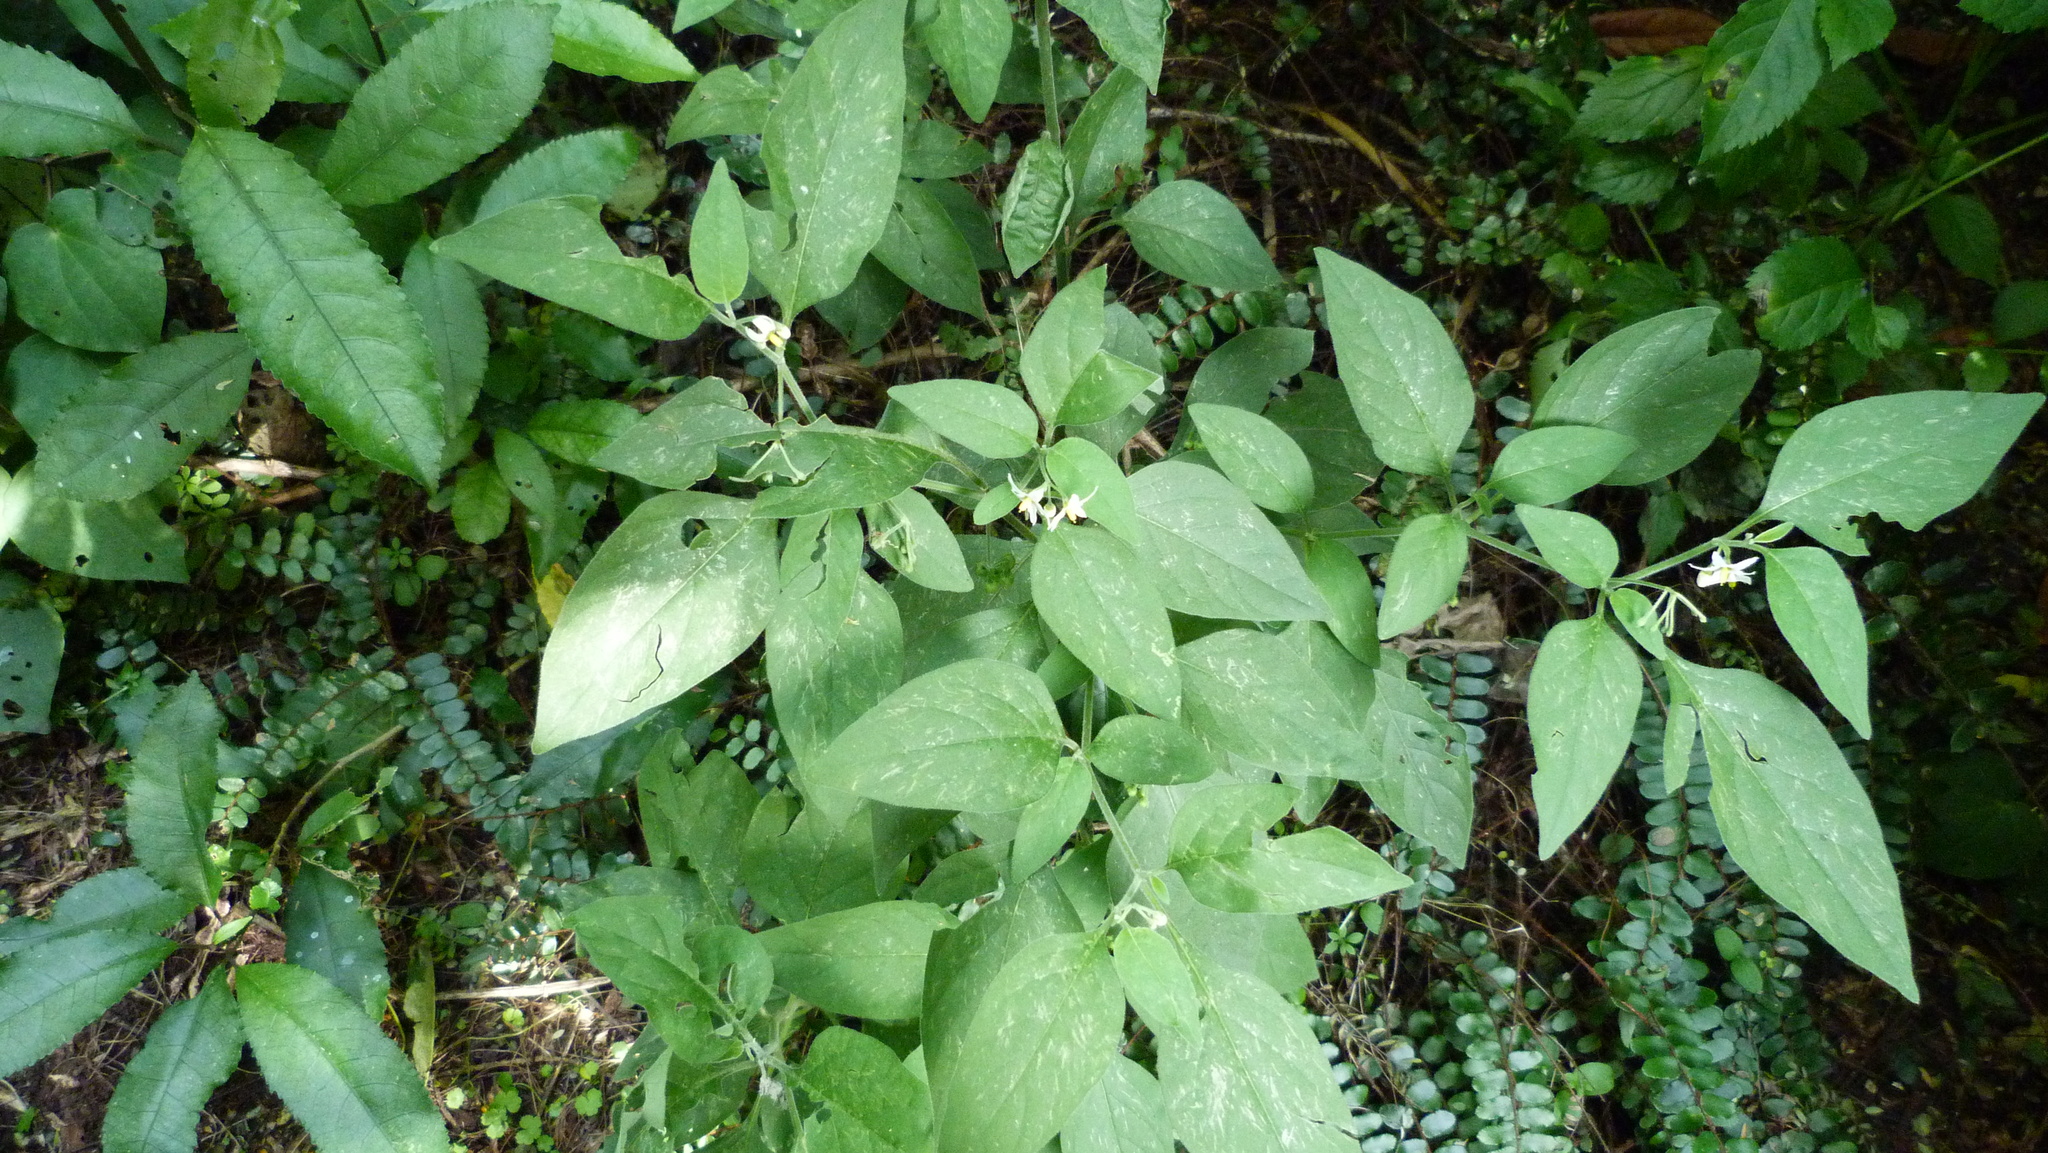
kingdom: Plantae
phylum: Tracheophyta
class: Magnoliopsida
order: Solanales
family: Solanaceae
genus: Solanum
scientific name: Solanum chenopodioides
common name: Tall nightshade
